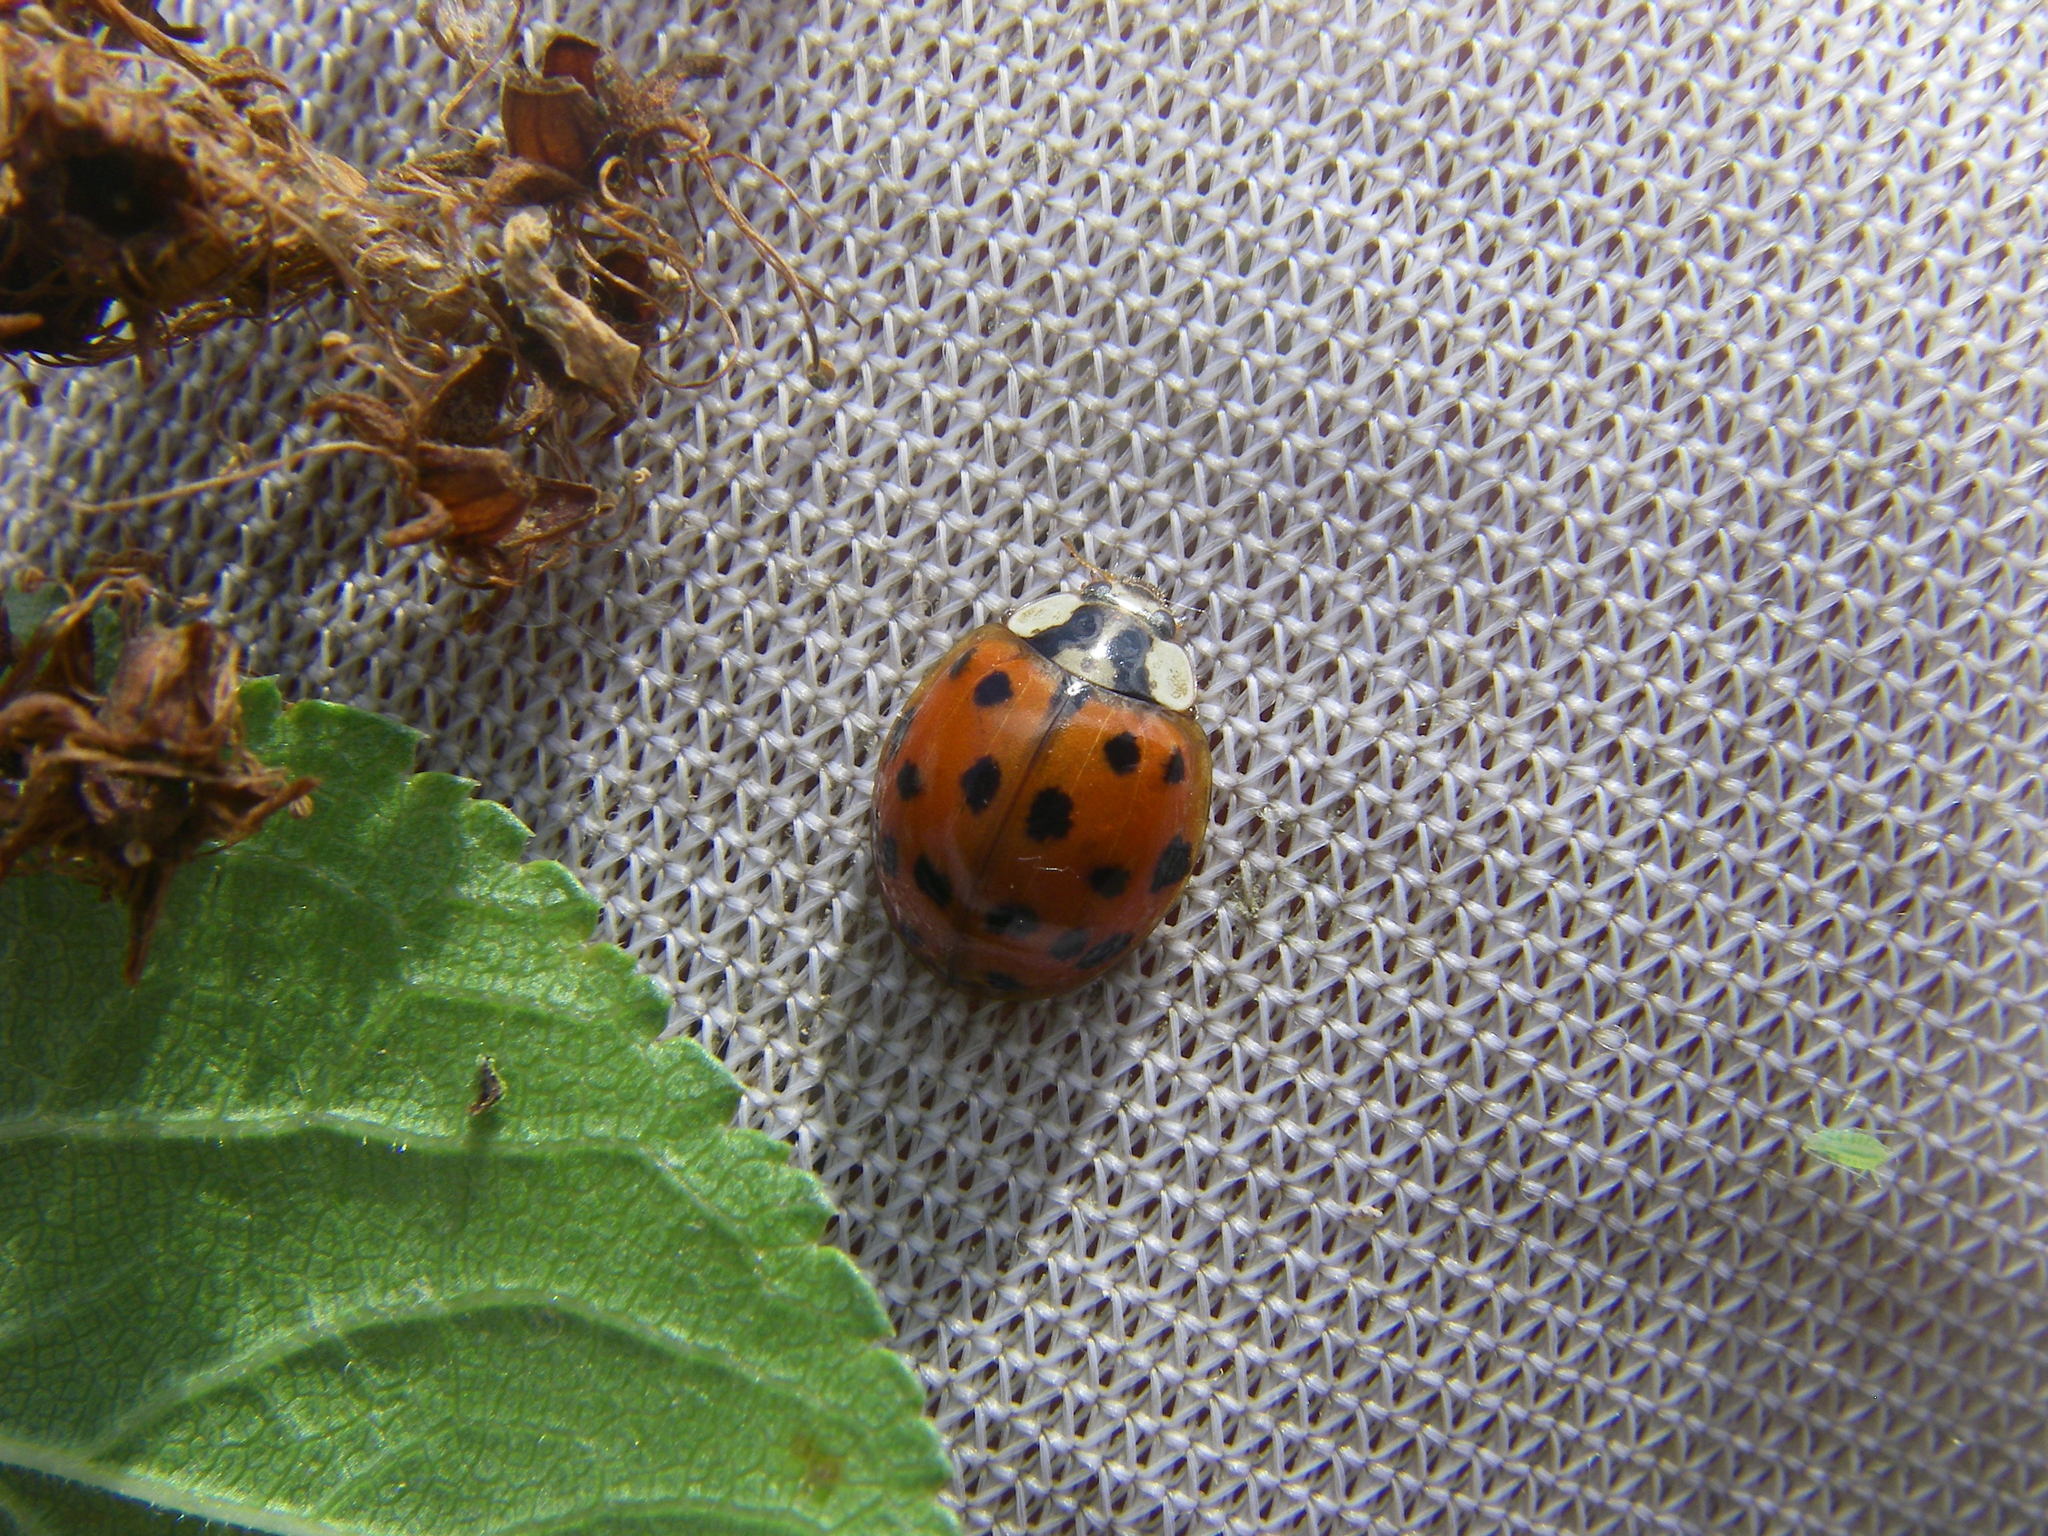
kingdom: Animalia
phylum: Arthropoda
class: Insecta
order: Coleoptera
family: Coccinellidae
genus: Harmonia
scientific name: Harmonia axyridis
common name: Harlequin ladybird
